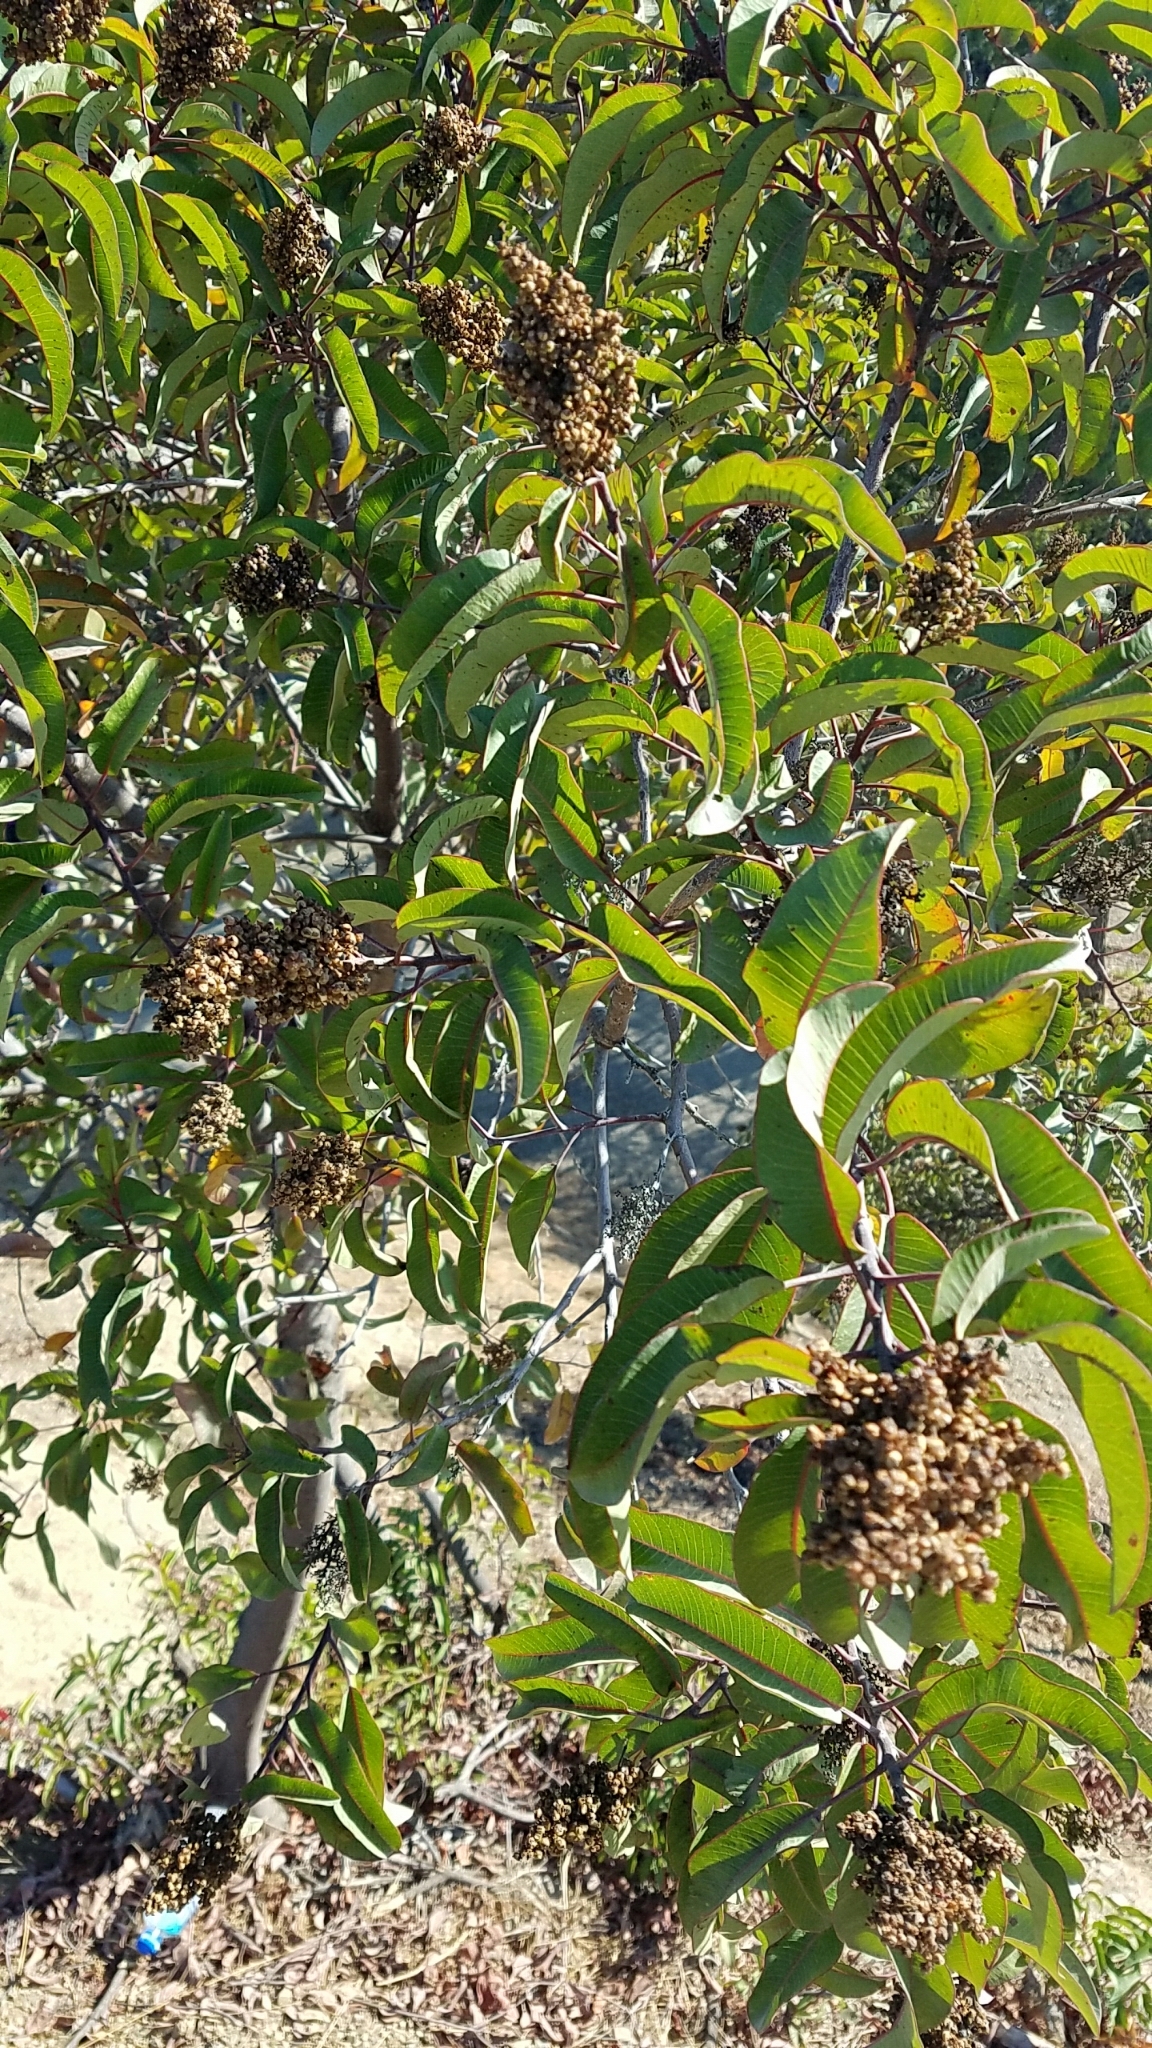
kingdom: Plantae
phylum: Tracheophyta
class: Magnoliopsida
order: Sapindales
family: Anacardiaceae
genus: Malosma
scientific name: Malosma laurina
